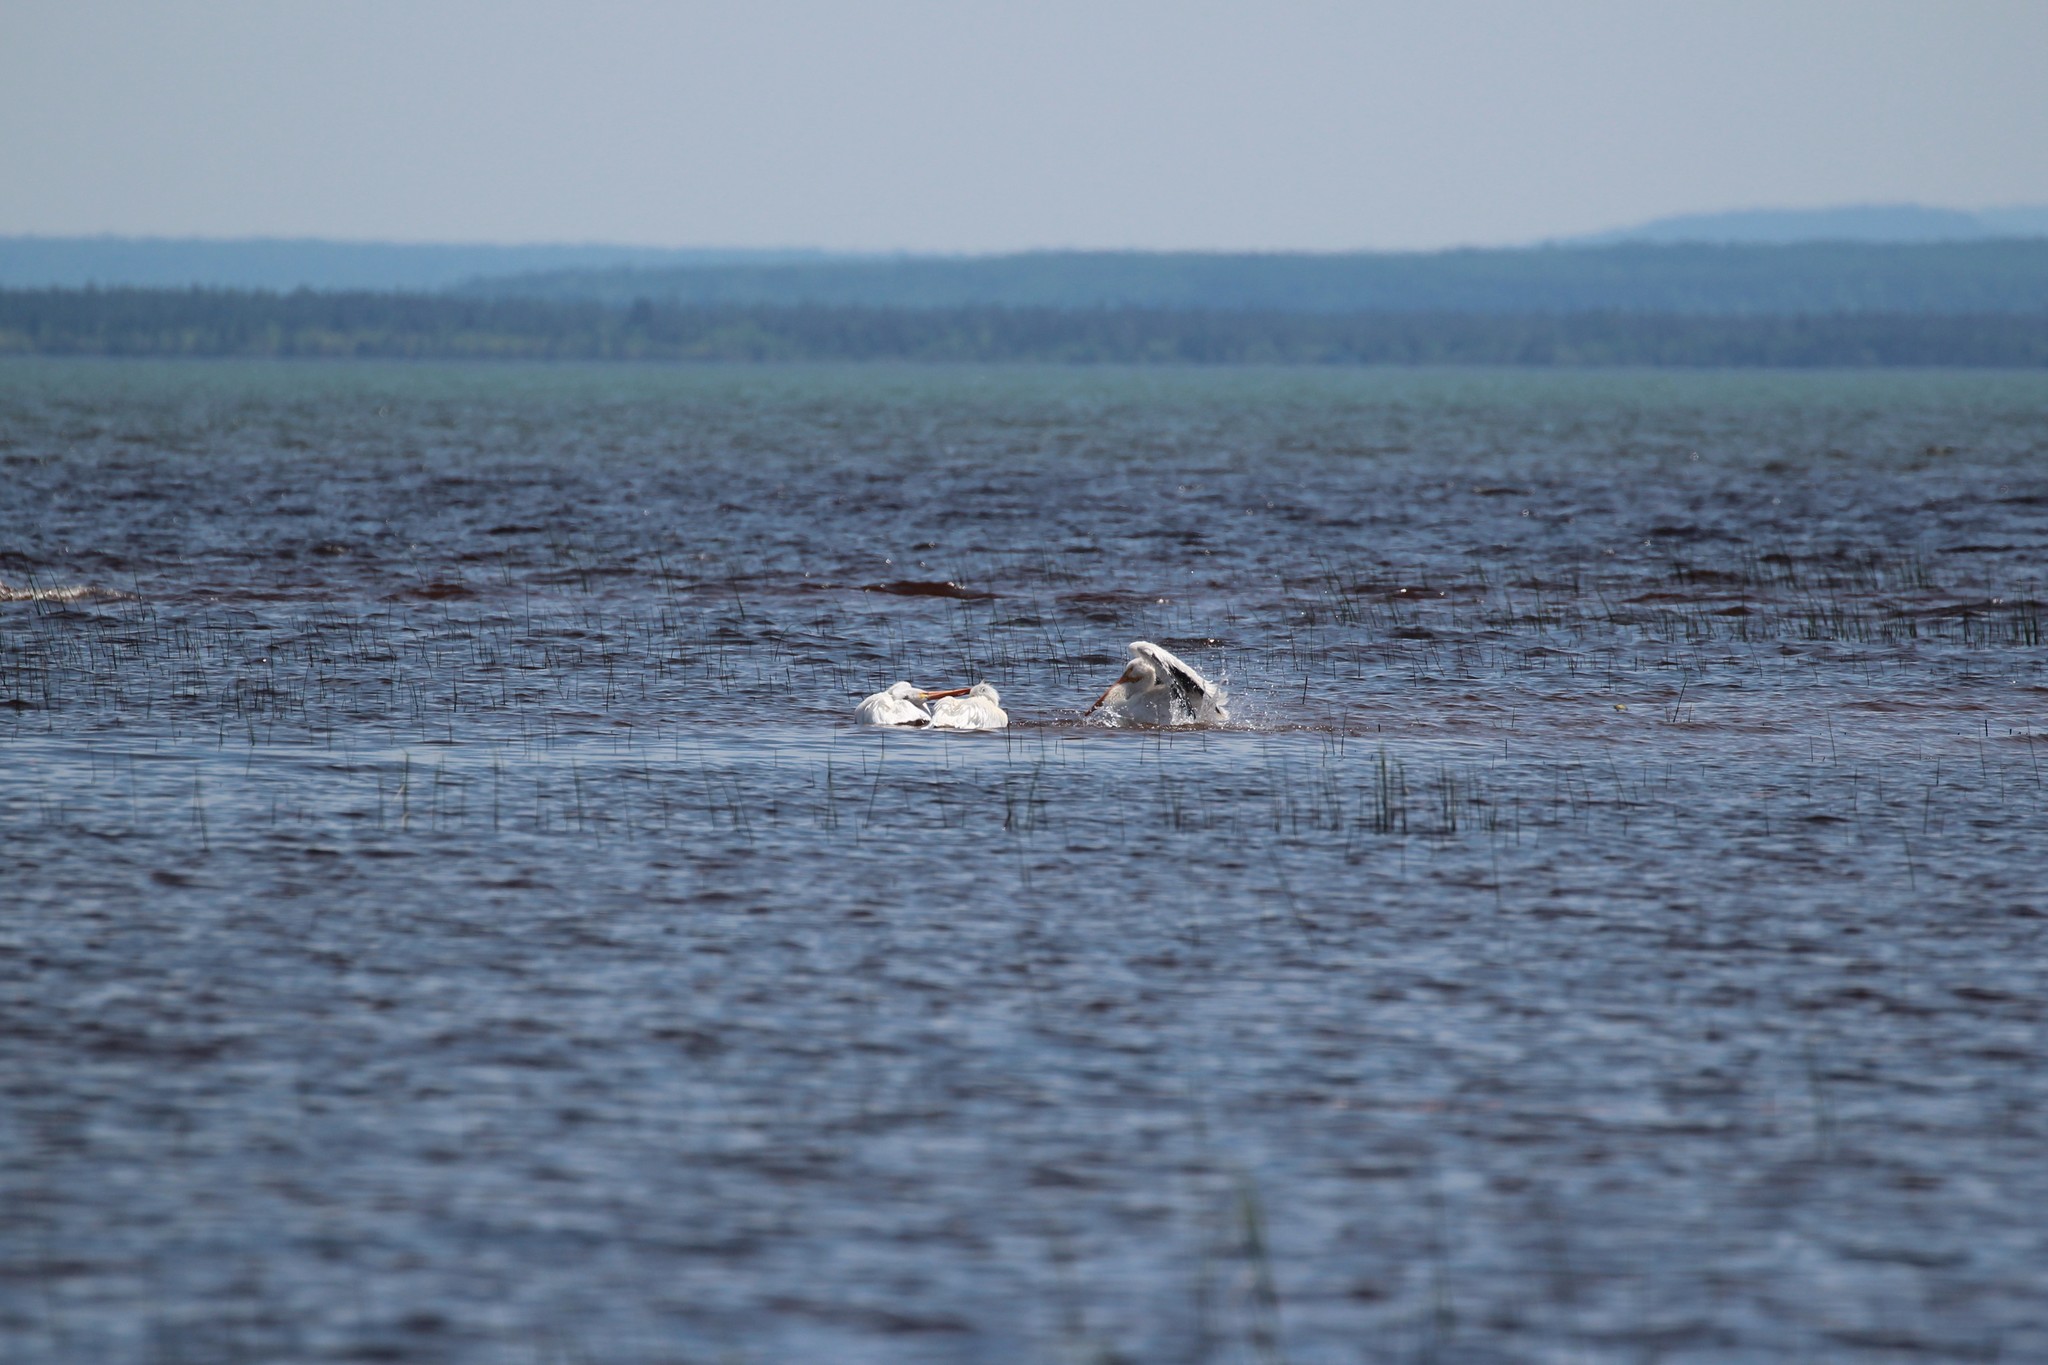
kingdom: Animalia
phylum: Chordata
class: Aves
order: Pelecaniformes
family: Pelecanidae
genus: Pelecanus
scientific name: Pelecanus erythrorhynchos
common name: American white pelican
